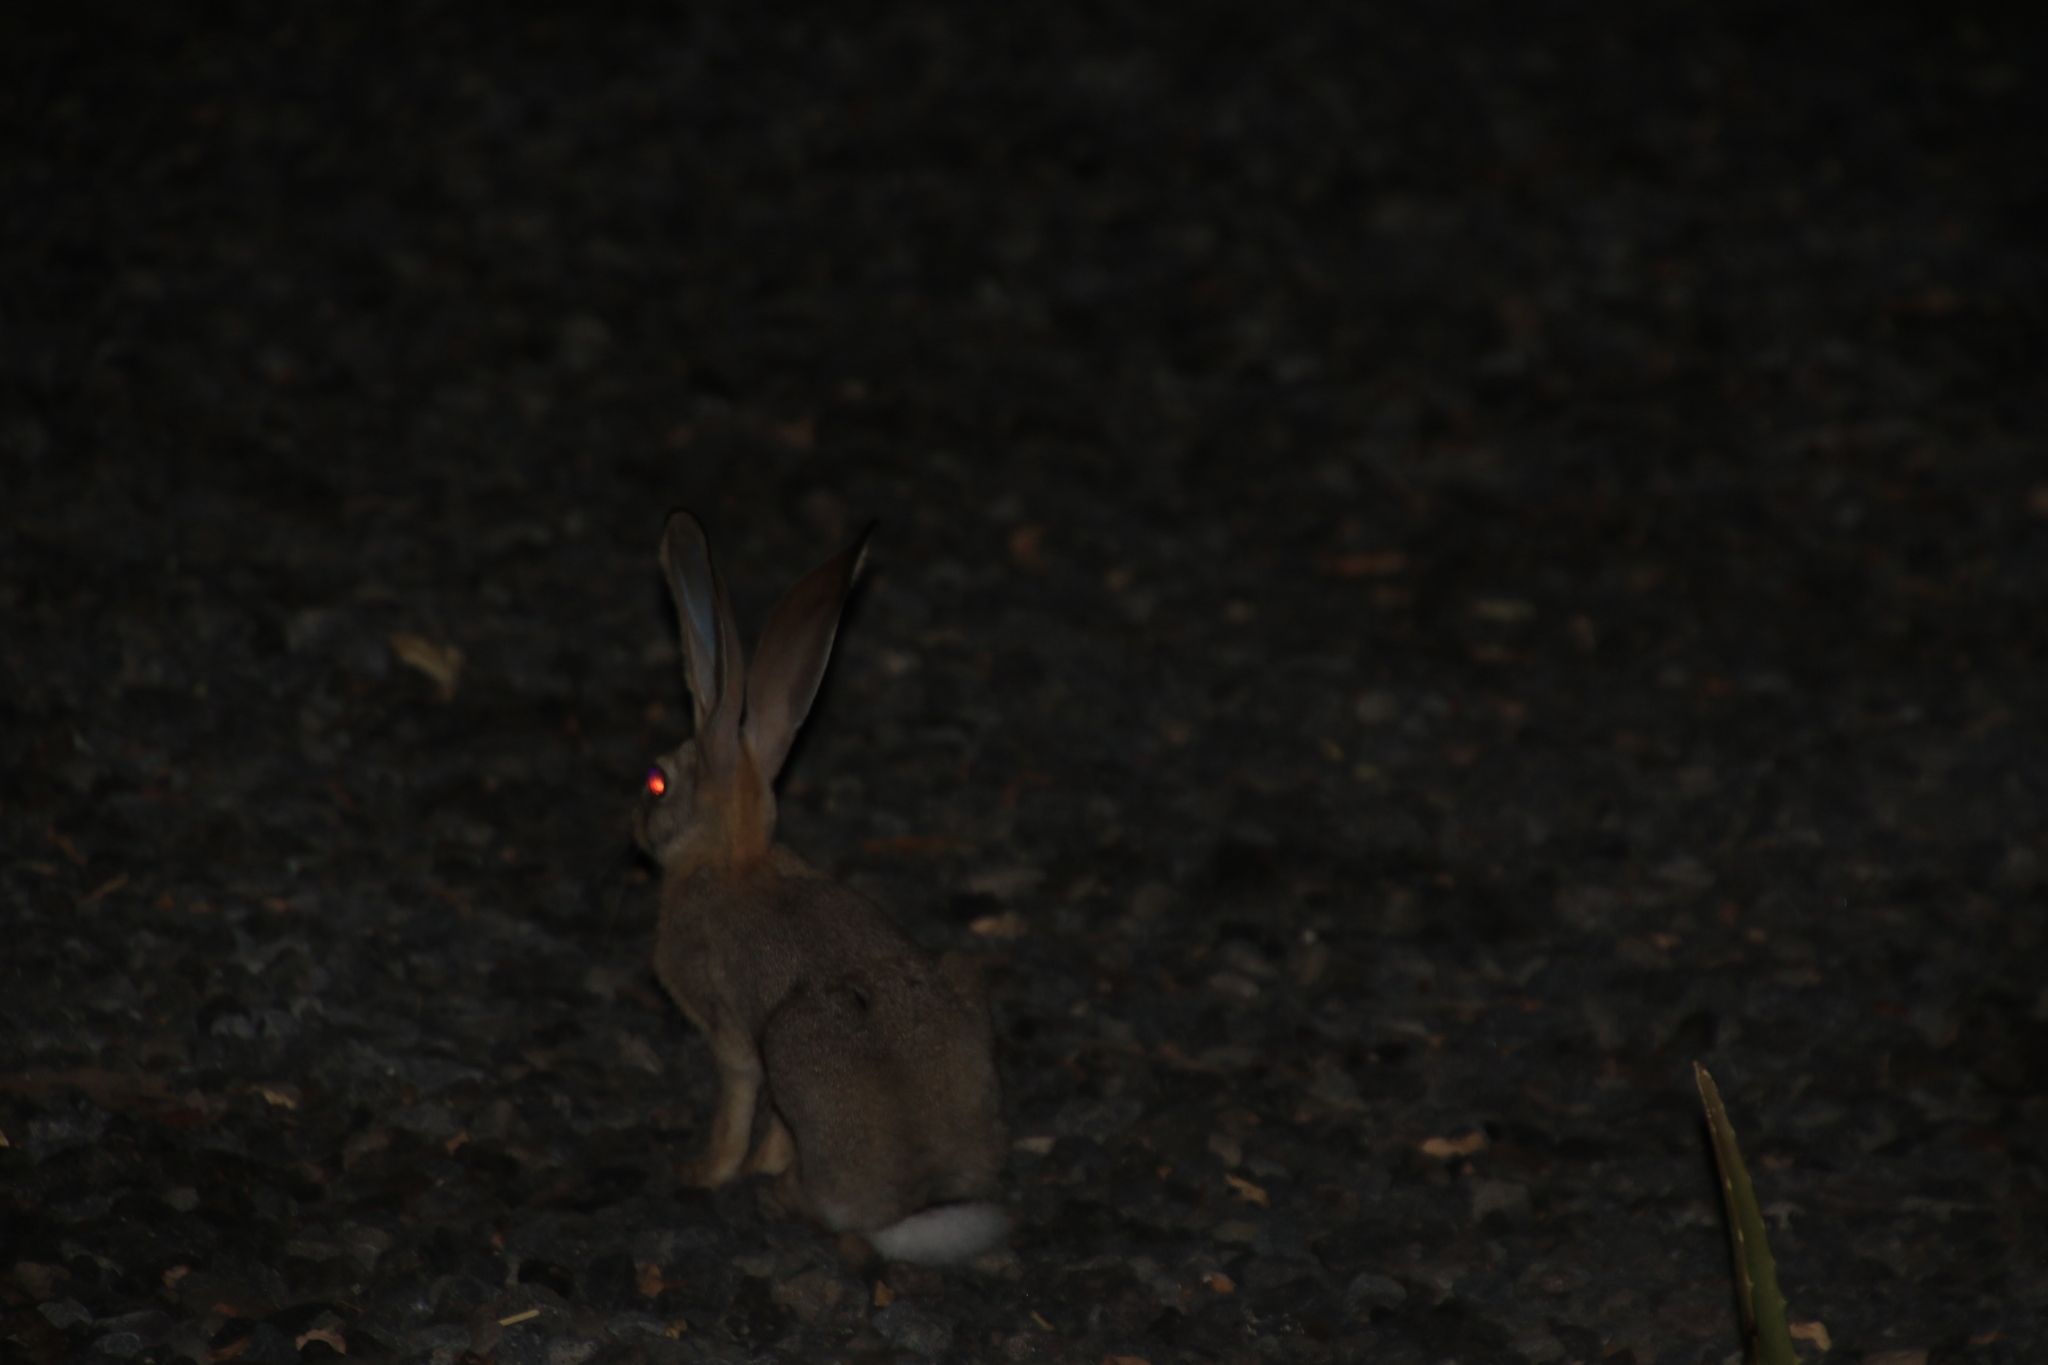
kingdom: Animalia
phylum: Chordata
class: Mammalia
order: Lagomorpha
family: Leporidae
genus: Lepus
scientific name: Lepus habessinicus
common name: Abyssinian hare
